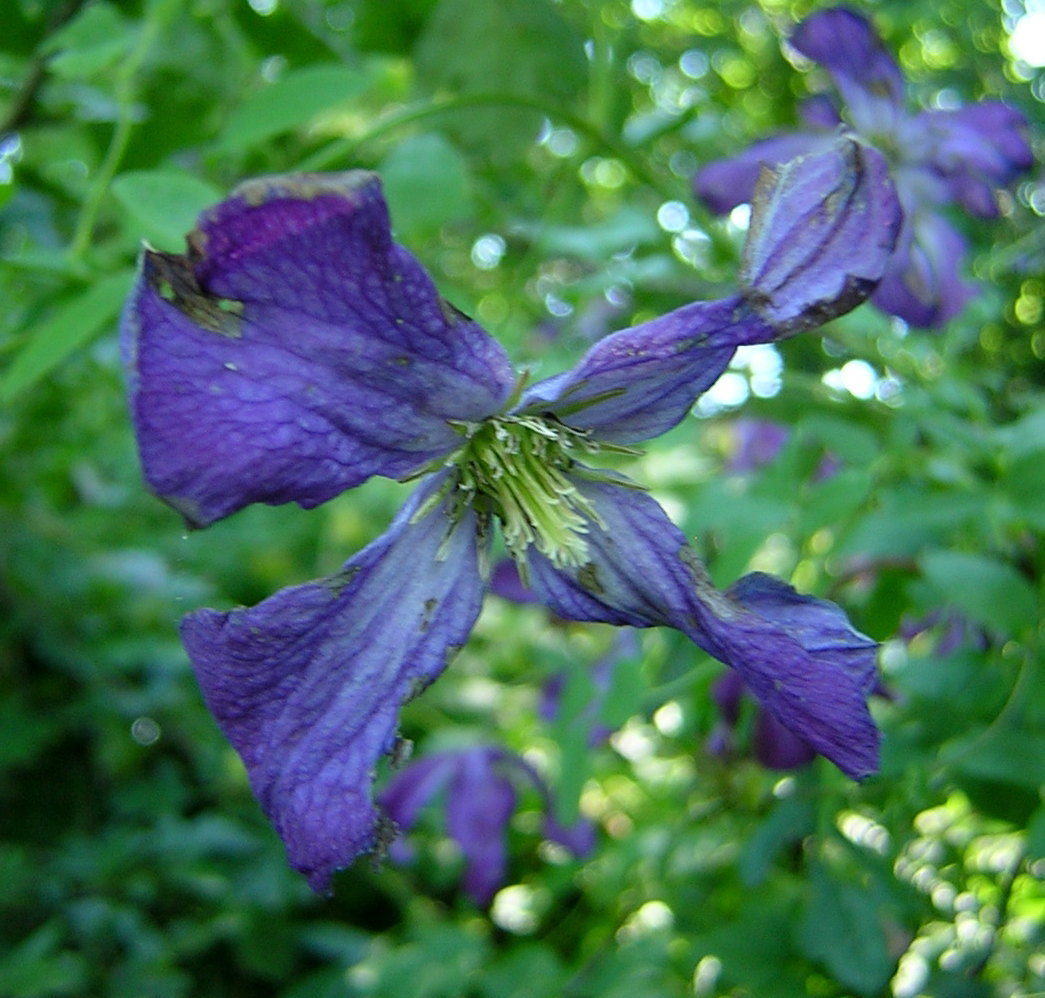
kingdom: Plantae
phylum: Tracheophyta
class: Magnoliopsida
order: Ranunculales
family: Ranunculaceae
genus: Clematis
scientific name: Clematis viticella
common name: Purple clematis
